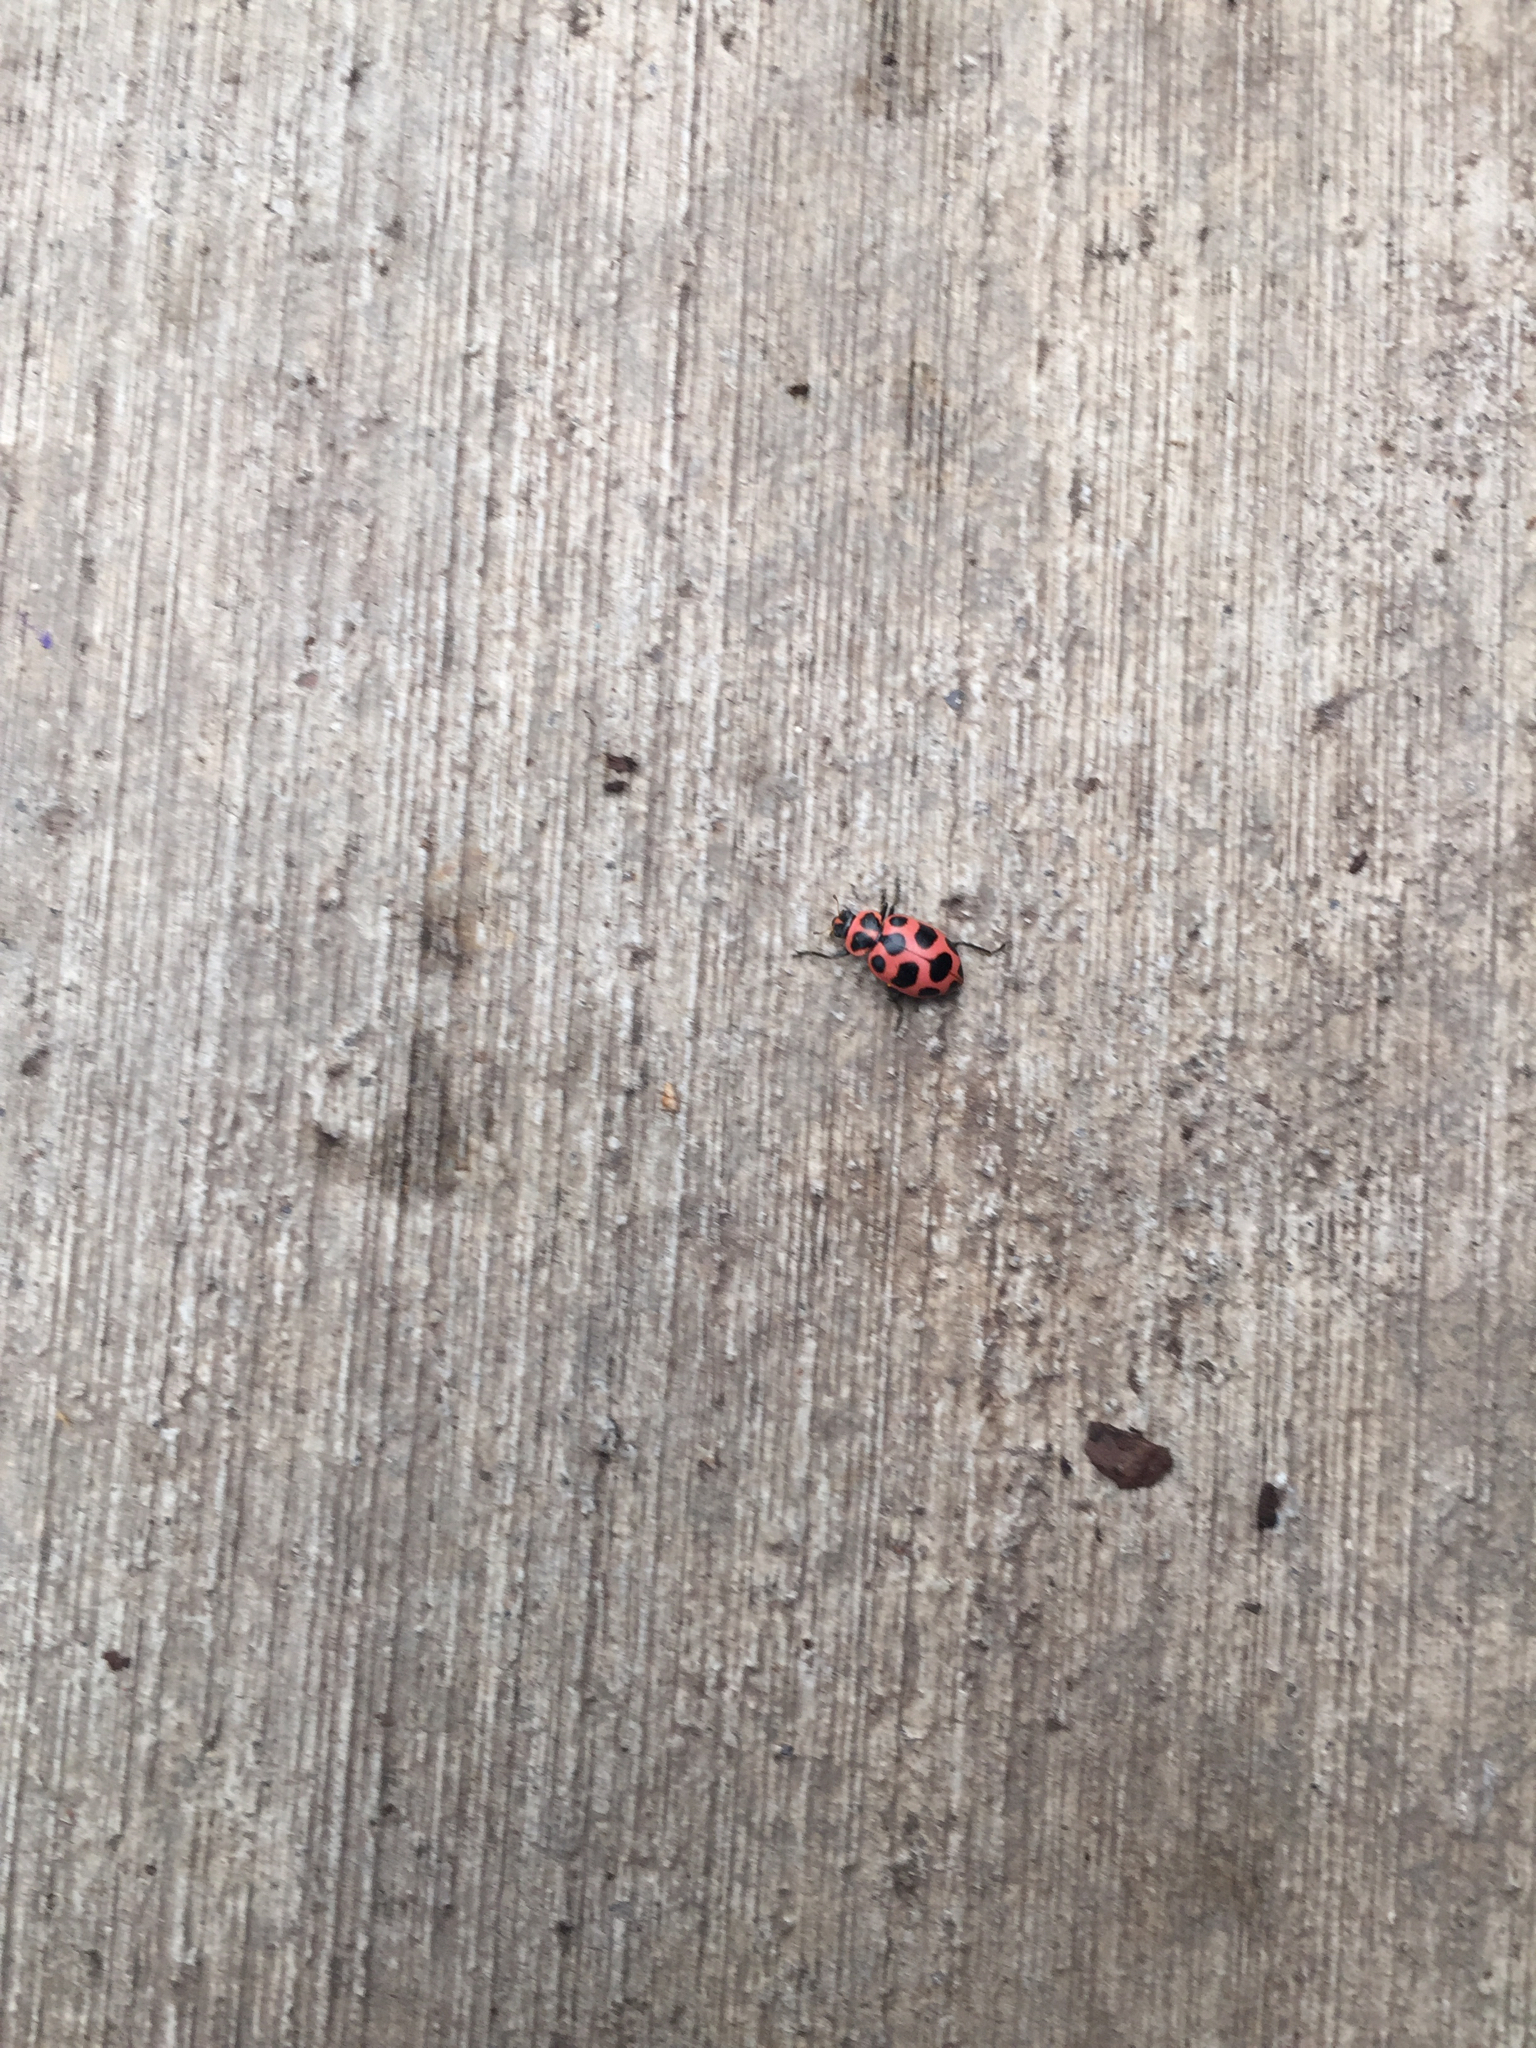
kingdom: Animalia
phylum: Arthropoda
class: Insecta
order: Coleoptera
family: Coccinellidae
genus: Coleomegilla
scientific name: Coleomegilla maculata
